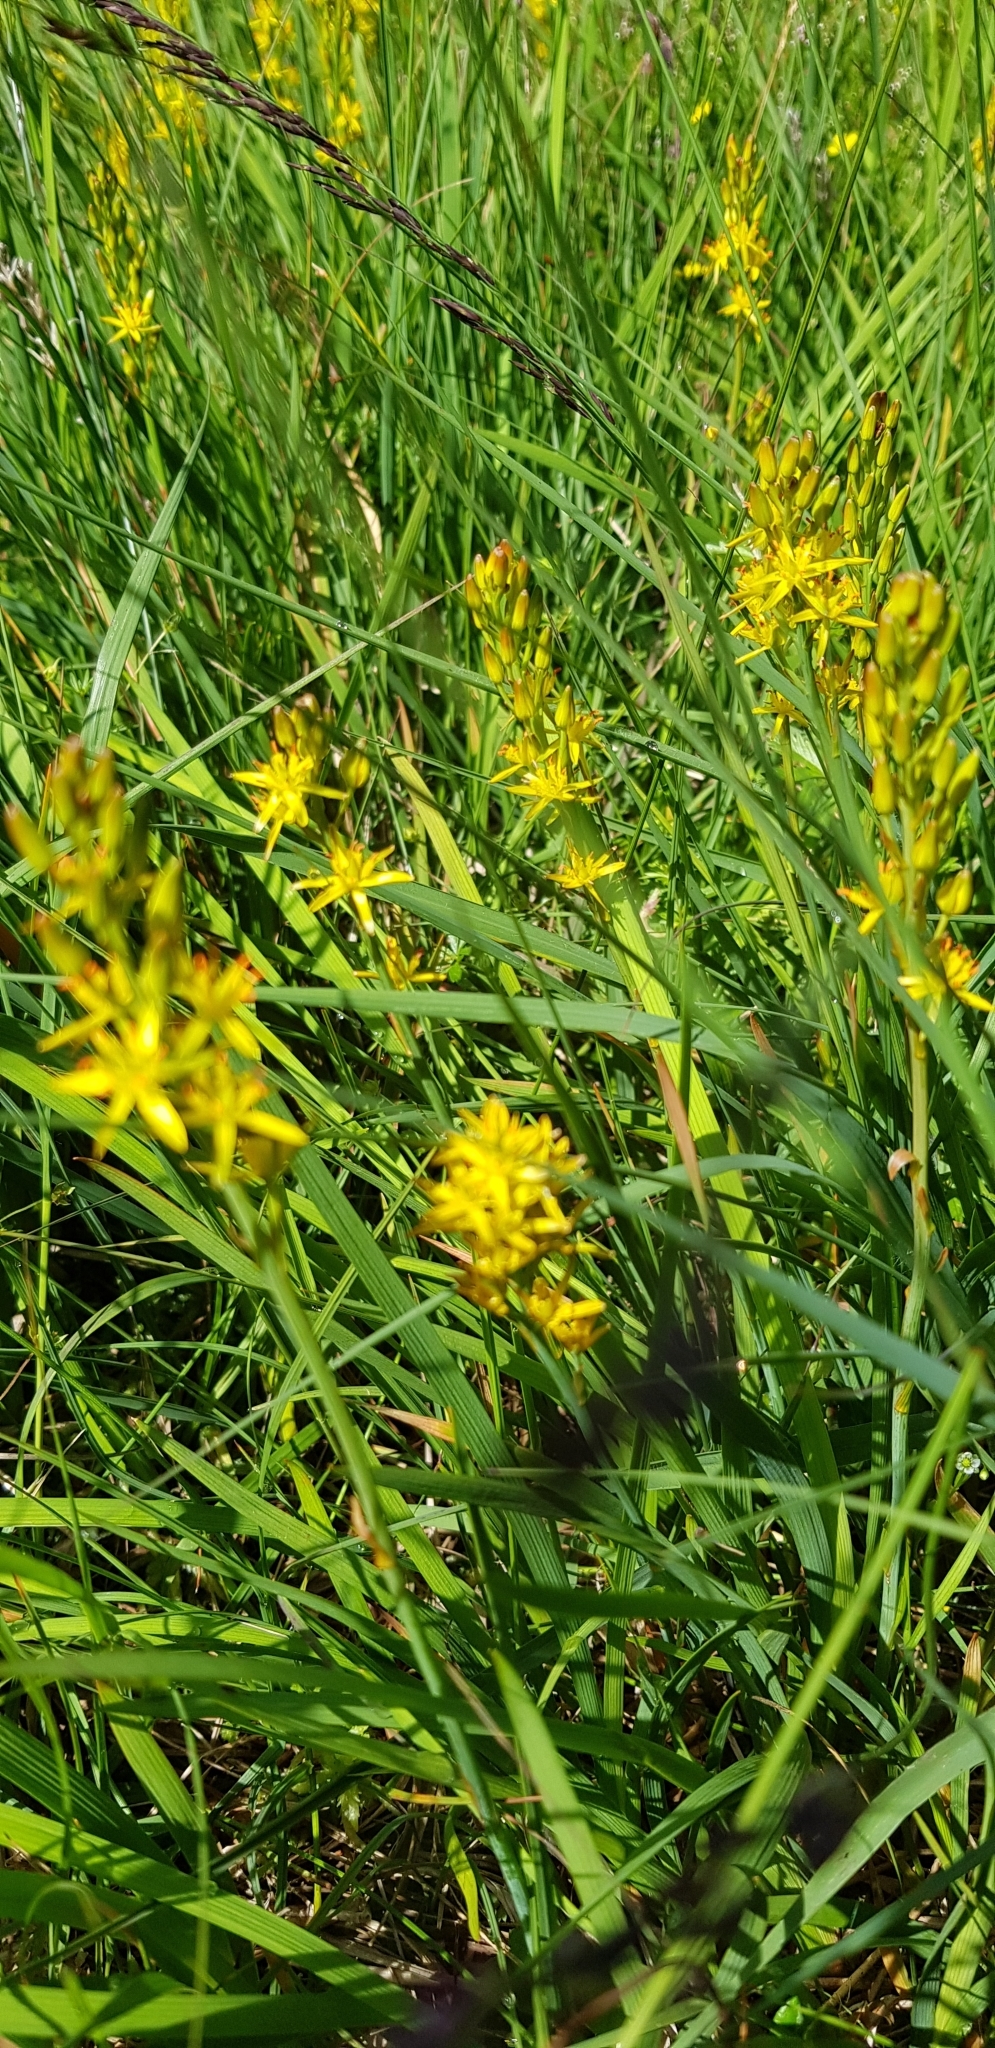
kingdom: Plantae
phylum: Tracheophyta
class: Liliopsida
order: Dioscoreales
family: Nartheciaceae
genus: Narthecium
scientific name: Narthecium ossifragum
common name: Bog asphodel
